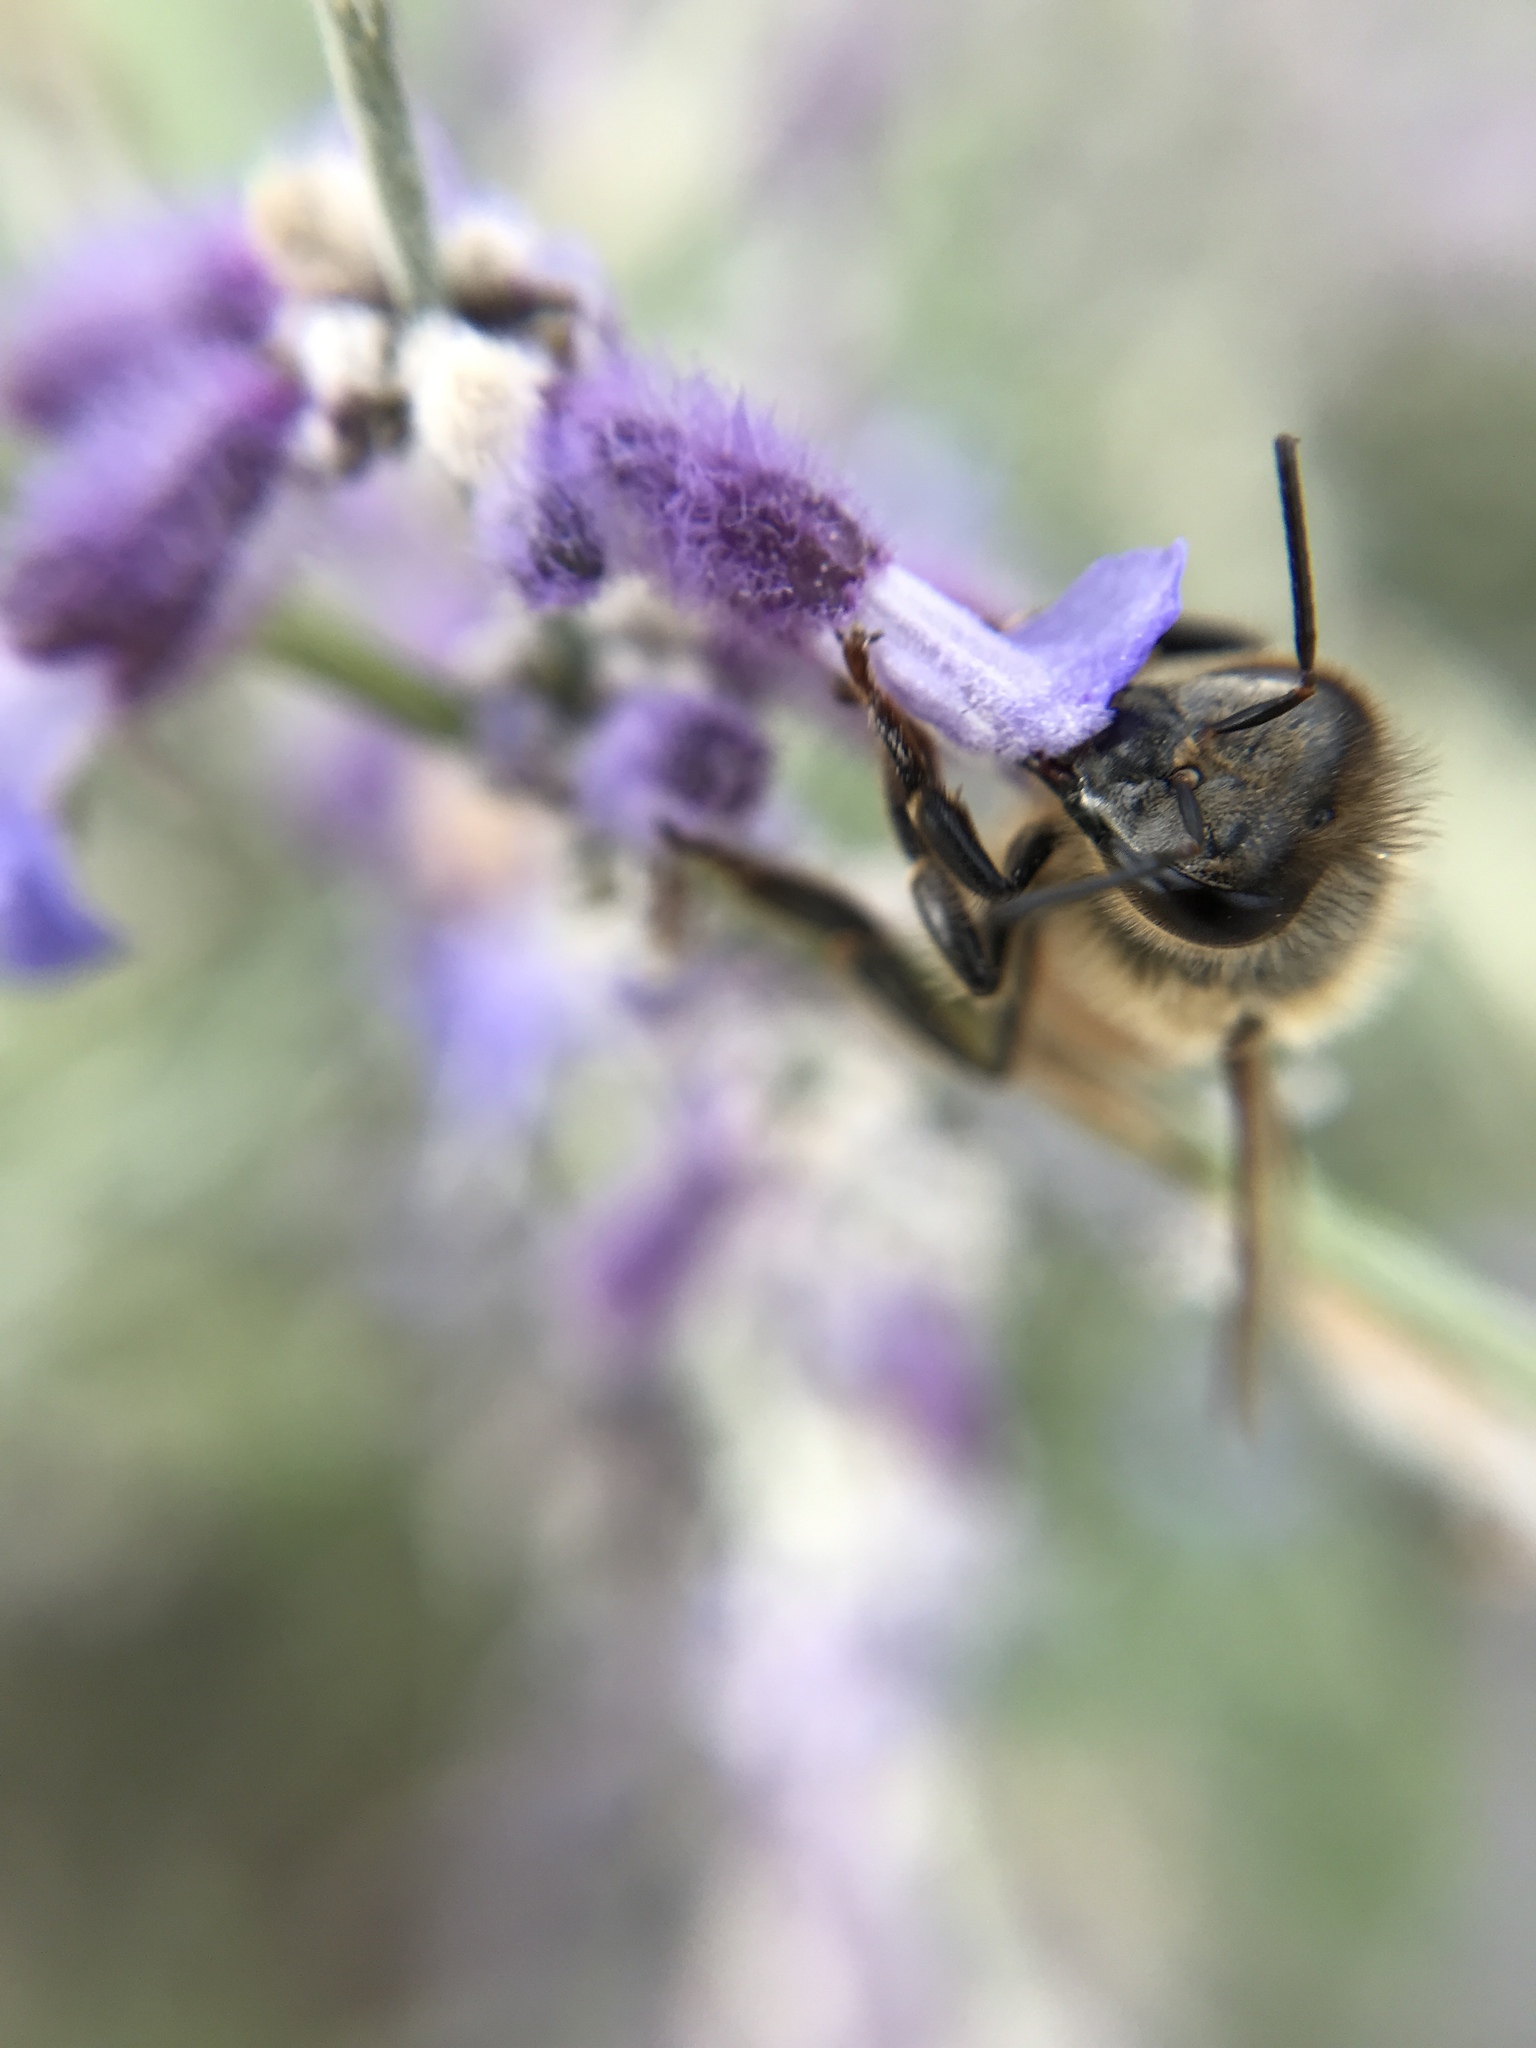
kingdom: Animalia
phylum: Arthropoda
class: Insecta
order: Hymenoptera
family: Apidae
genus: Apis
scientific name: Apis mellifera
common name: Honey bee
